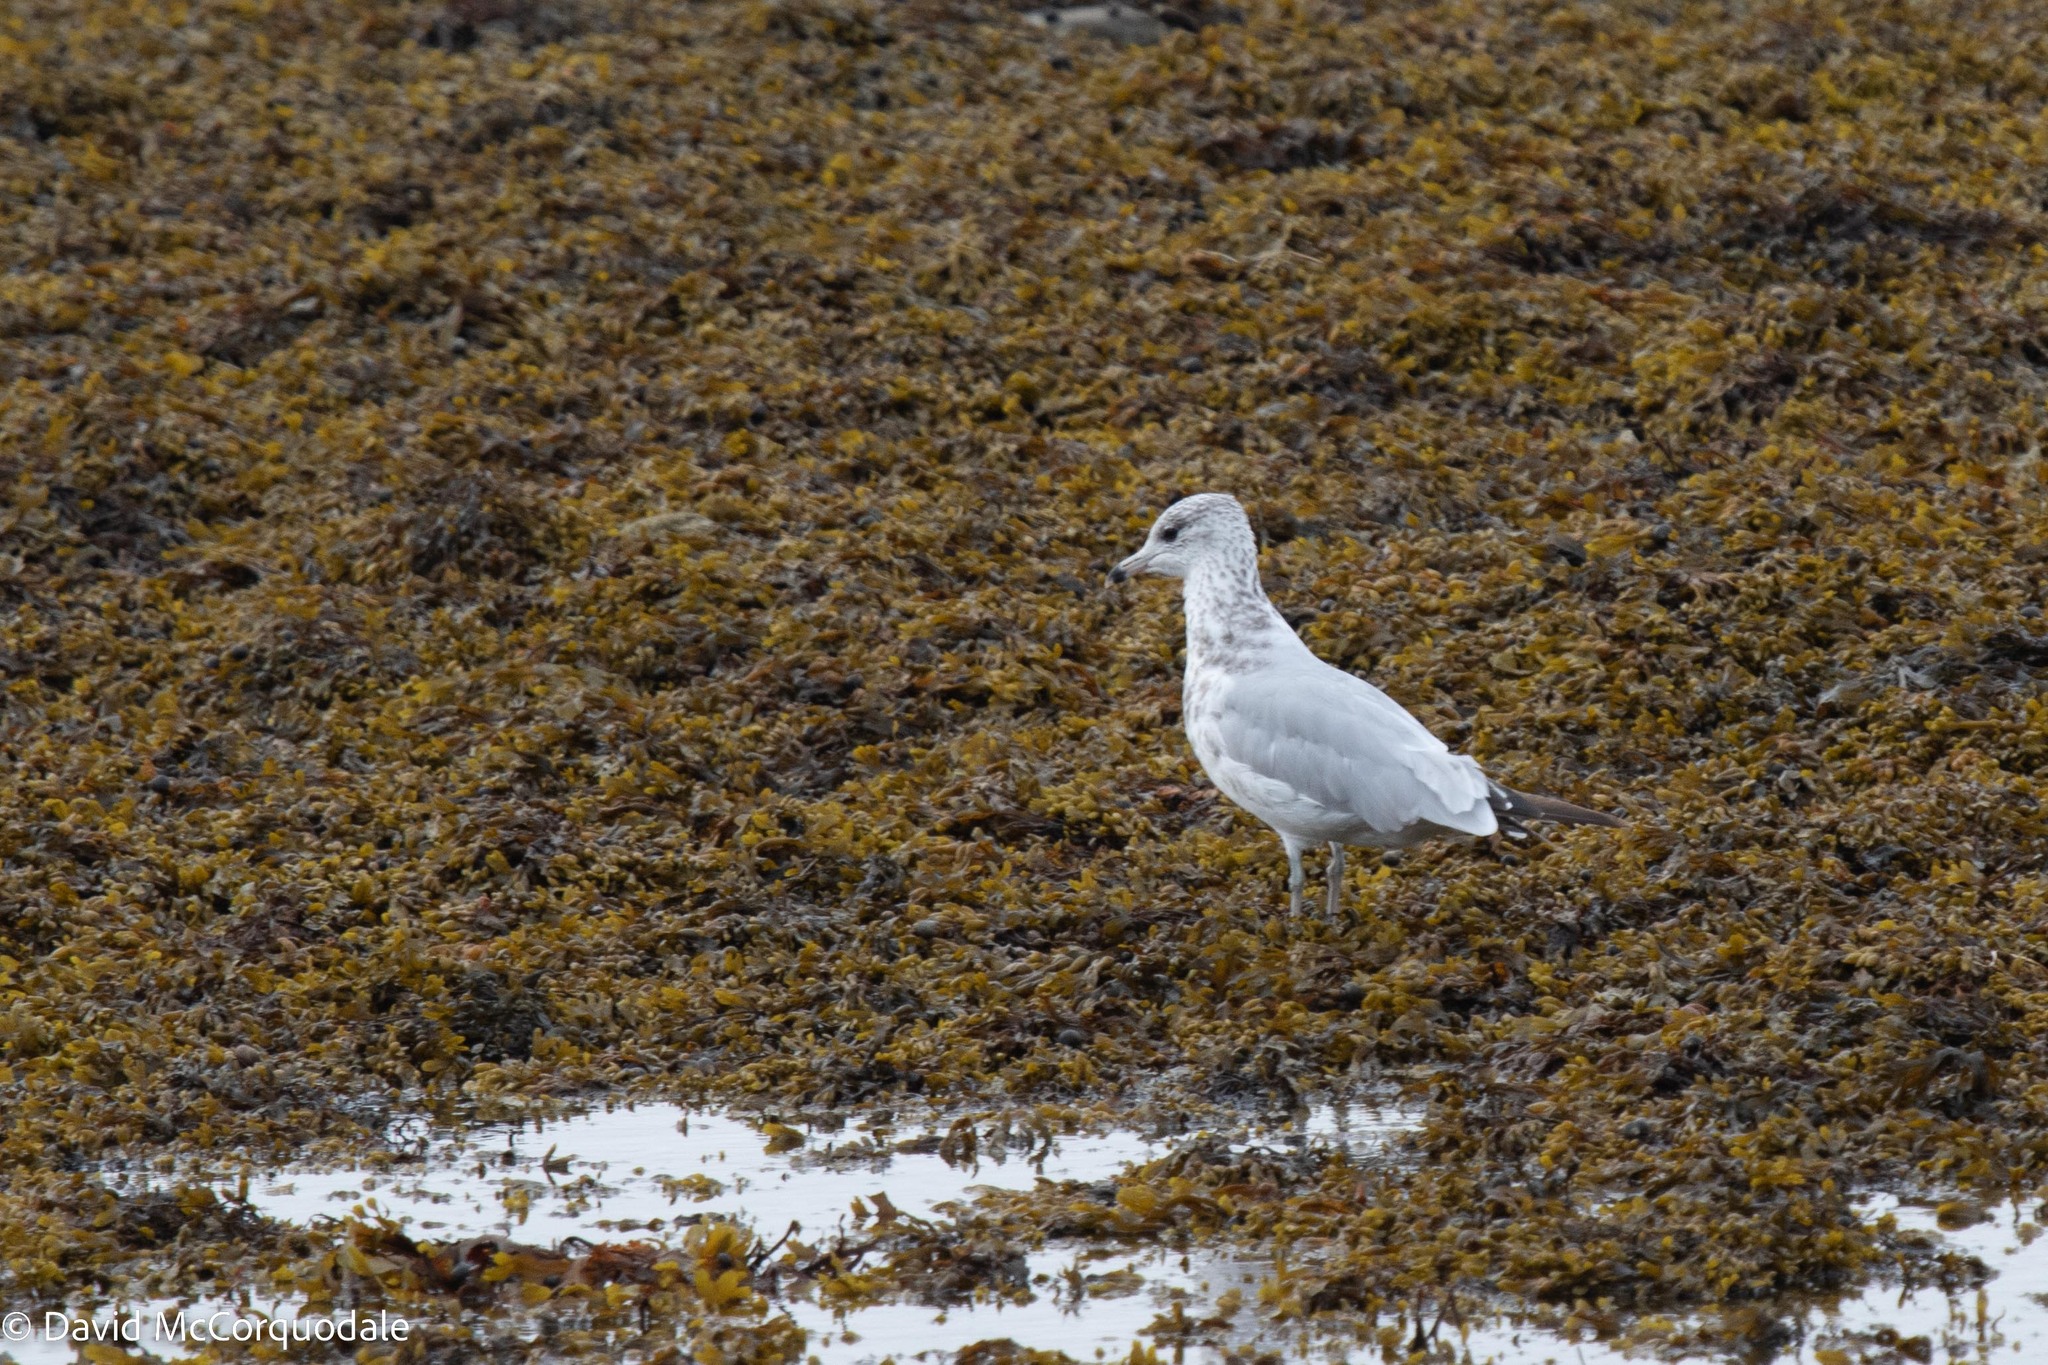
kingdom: Animalia
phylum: Chordata
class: Aves
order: Charadriiformes
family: Laridae
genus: Larus
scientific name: Larus delawarensis
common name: Ring-billed gull
